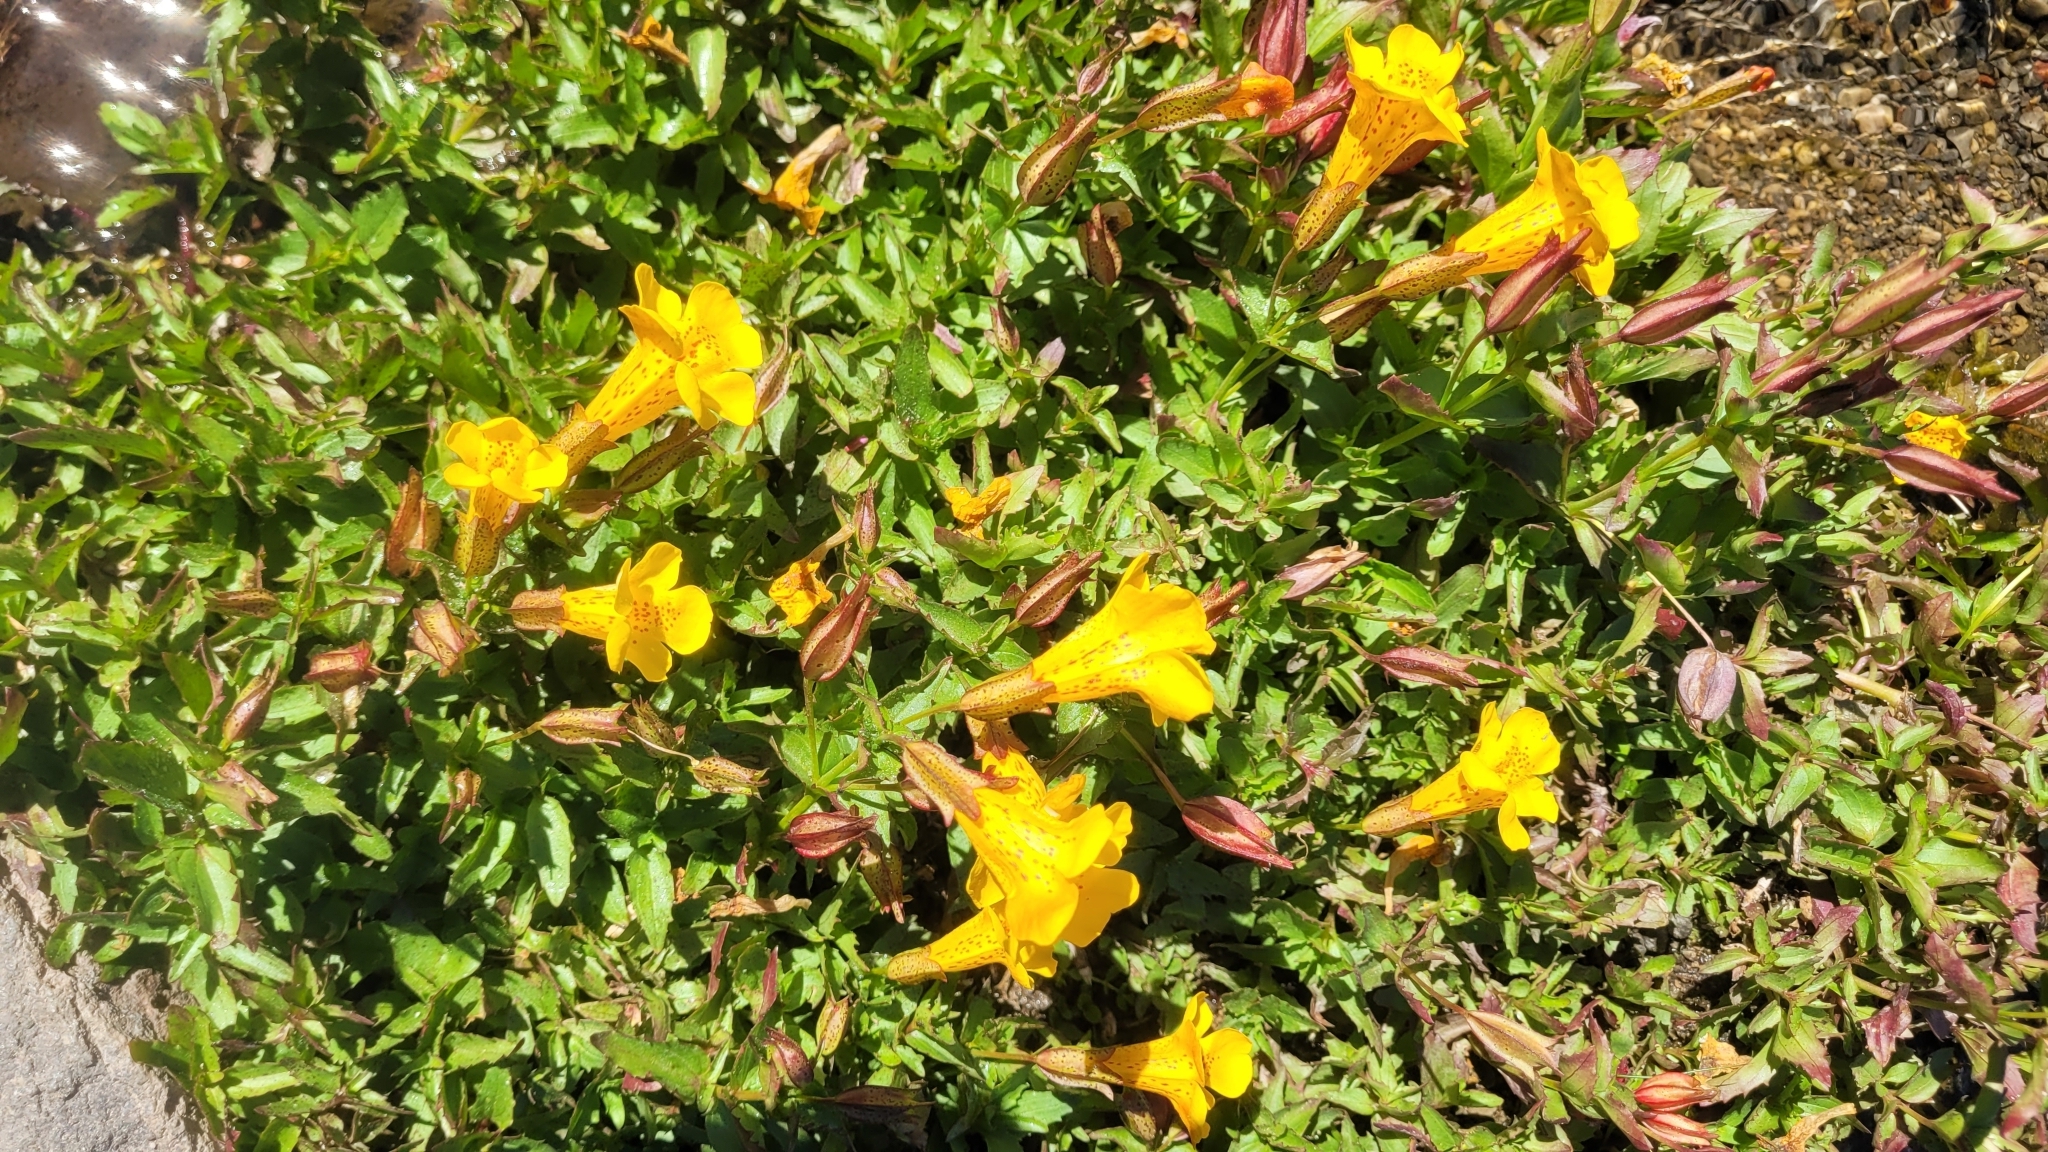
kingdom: Plantae
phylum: Tracheophyta
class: Magnoliopsida
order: Lamiales
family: Phrymaceae
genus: Erythranthe
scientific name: Erythranthe lutea
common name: Yellow monkey-flower
